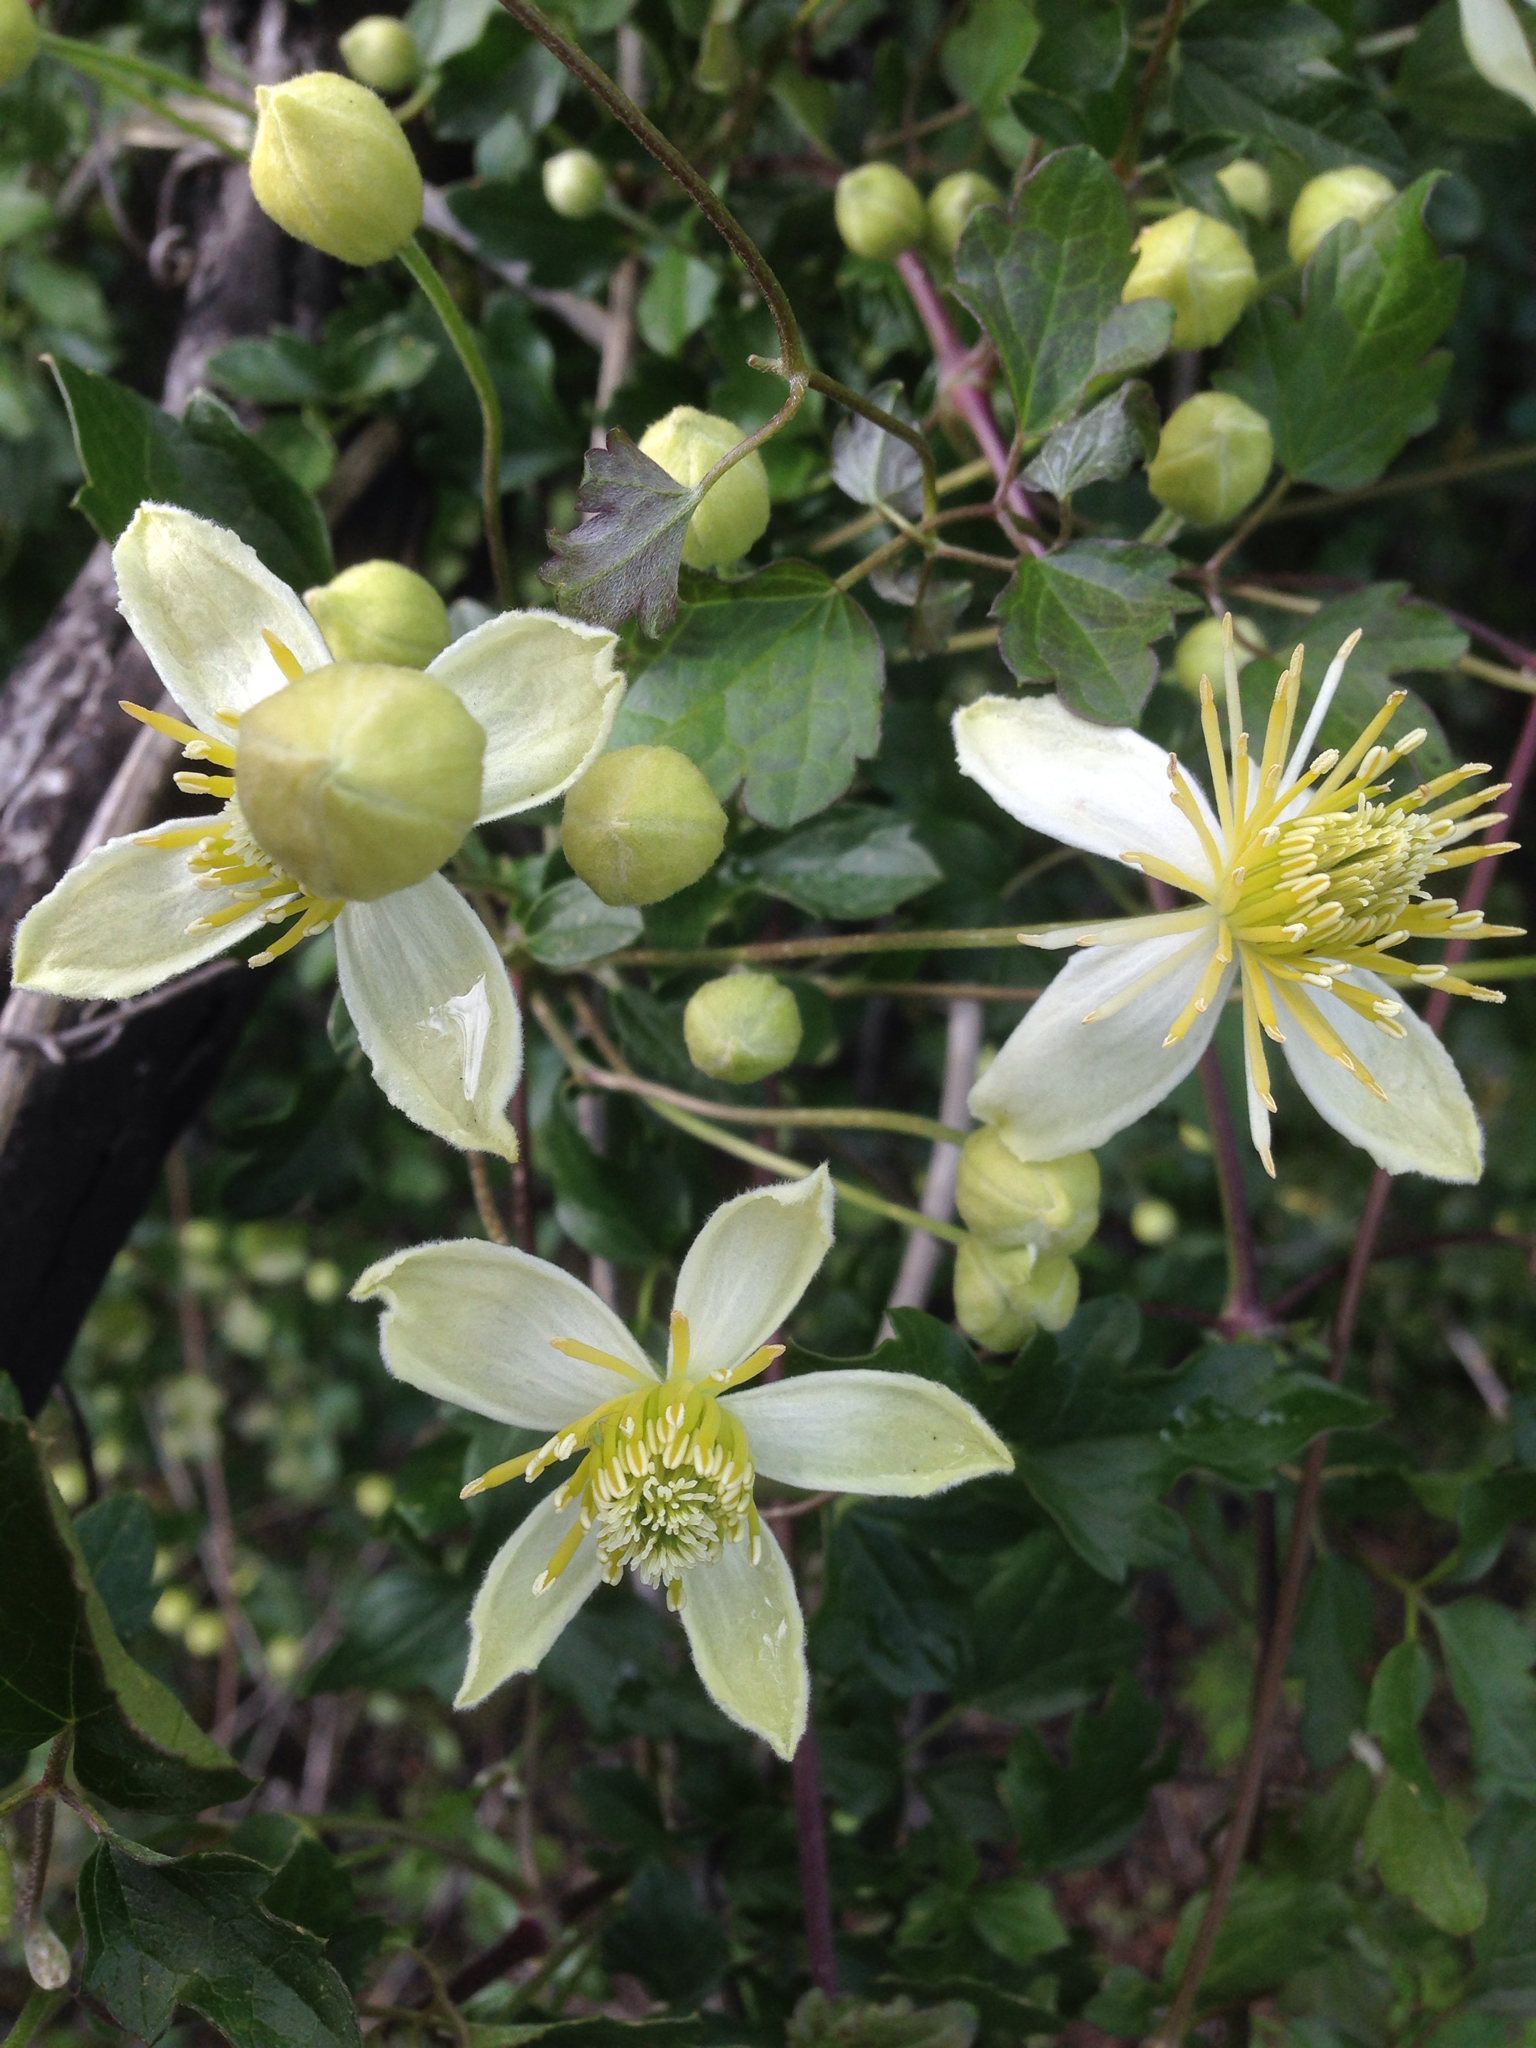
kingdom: Plantae
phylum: Tracheophyta
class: Magnoliopsida
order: Ranunculales
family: Ranunculaceae
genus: Clematis
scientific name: Clematis pauciflora
